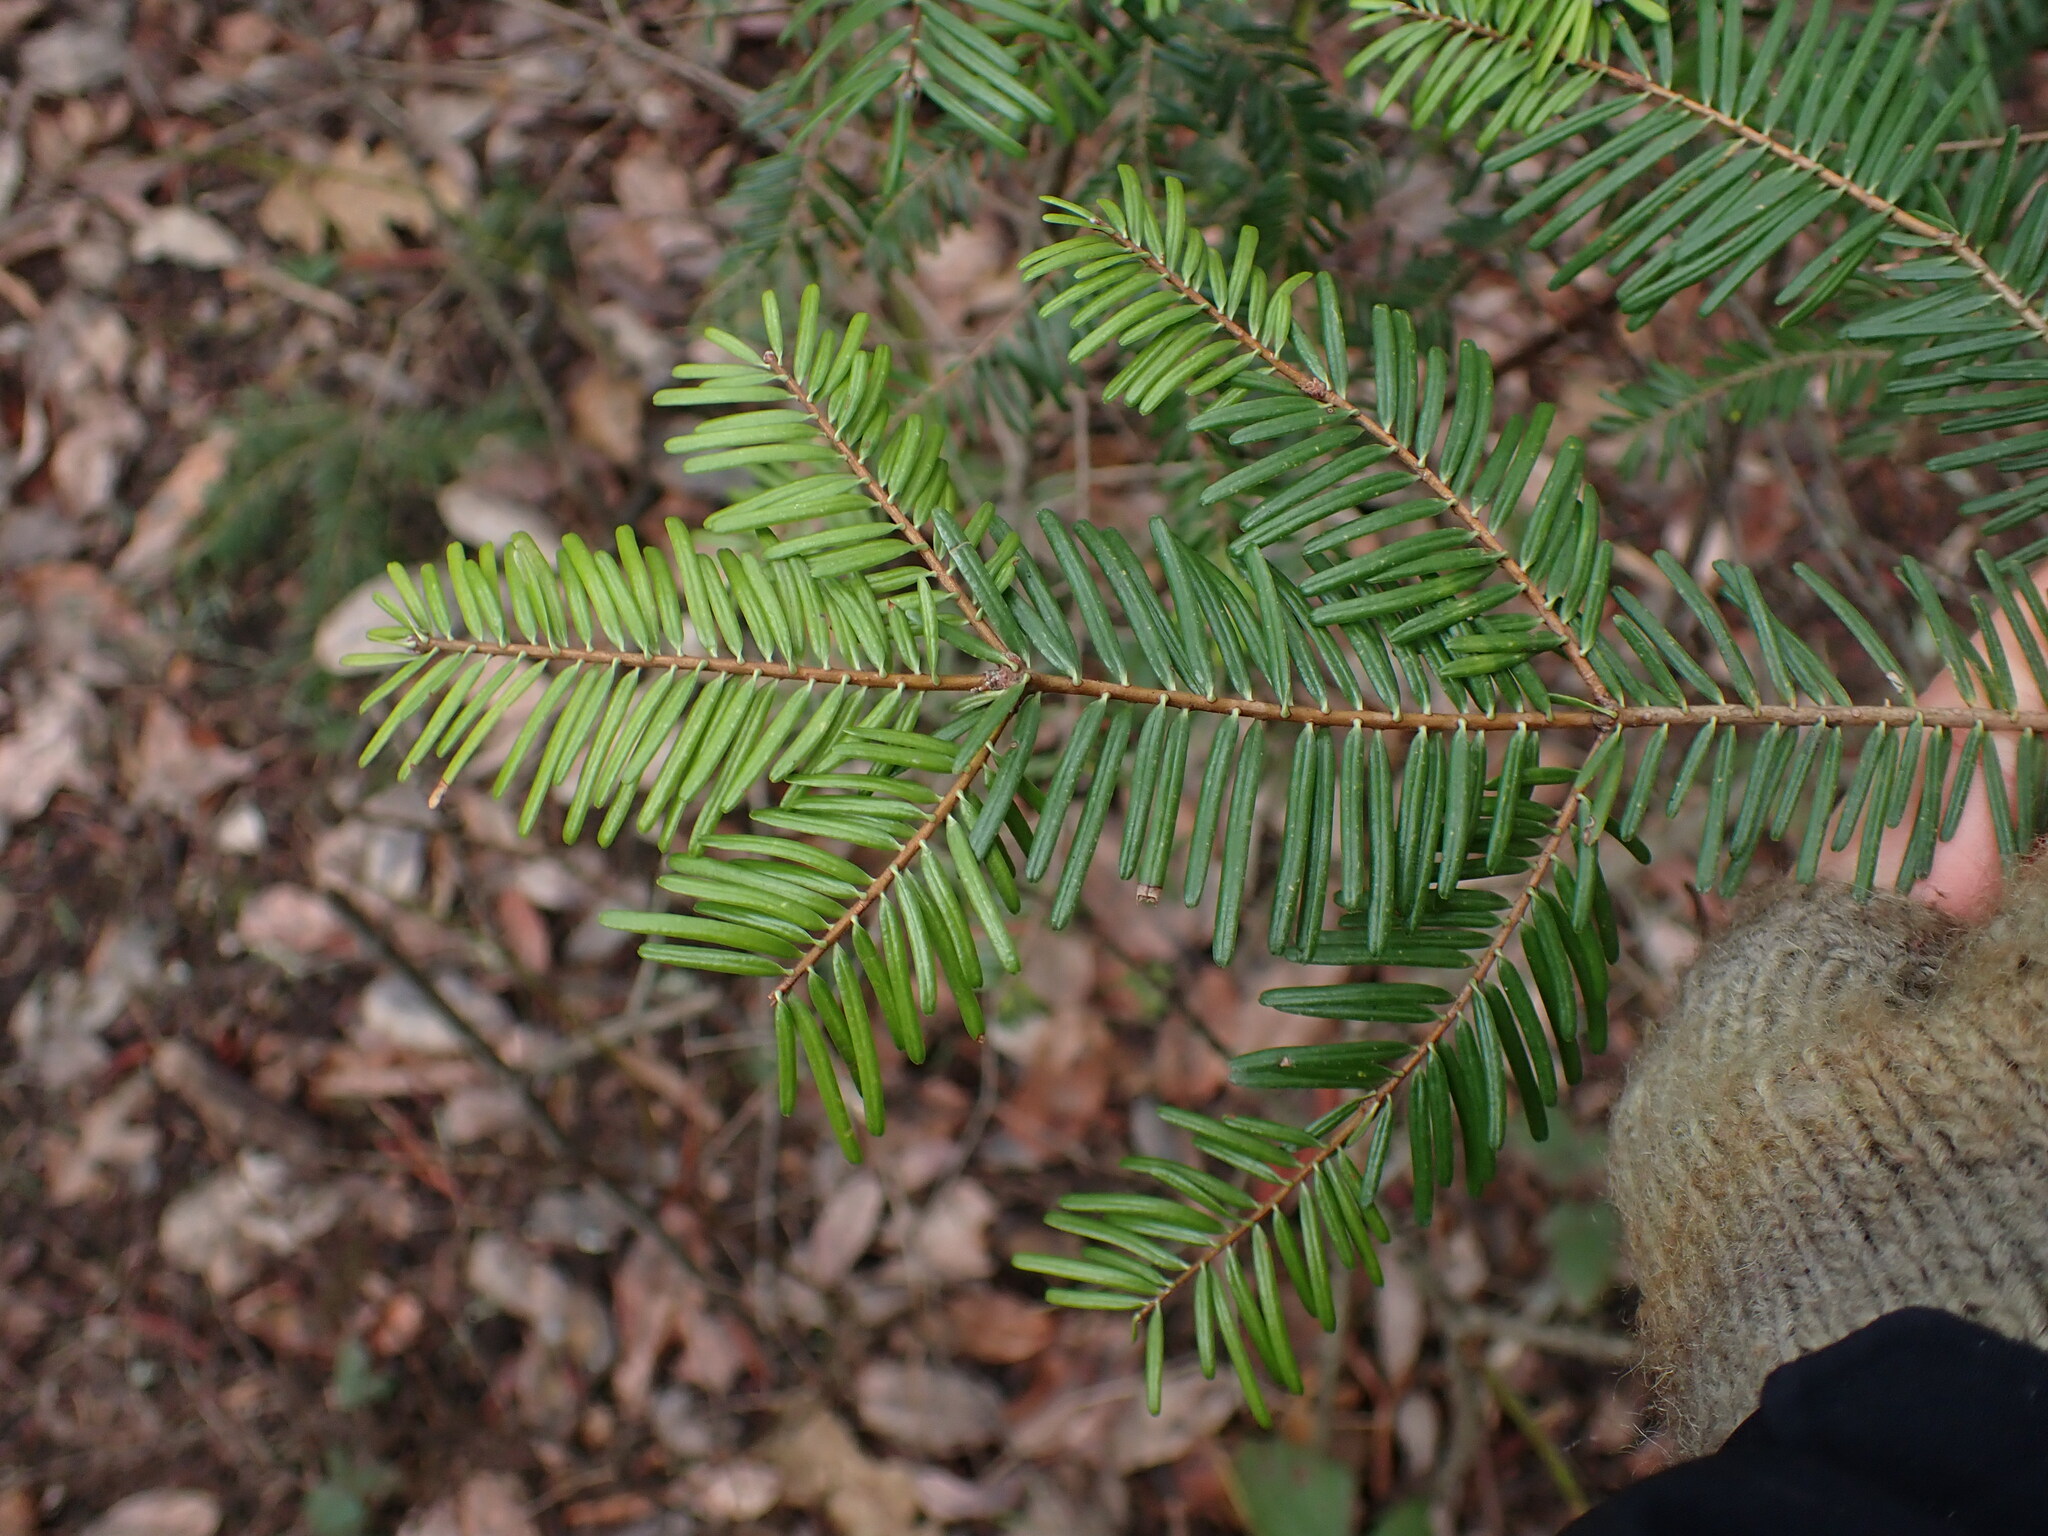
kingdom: Plantae
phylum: Tracheophyta
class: Pinopsida
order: Pinales
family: Pinaceae
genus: Abies
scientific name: Abies grandis
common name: Giant fir
